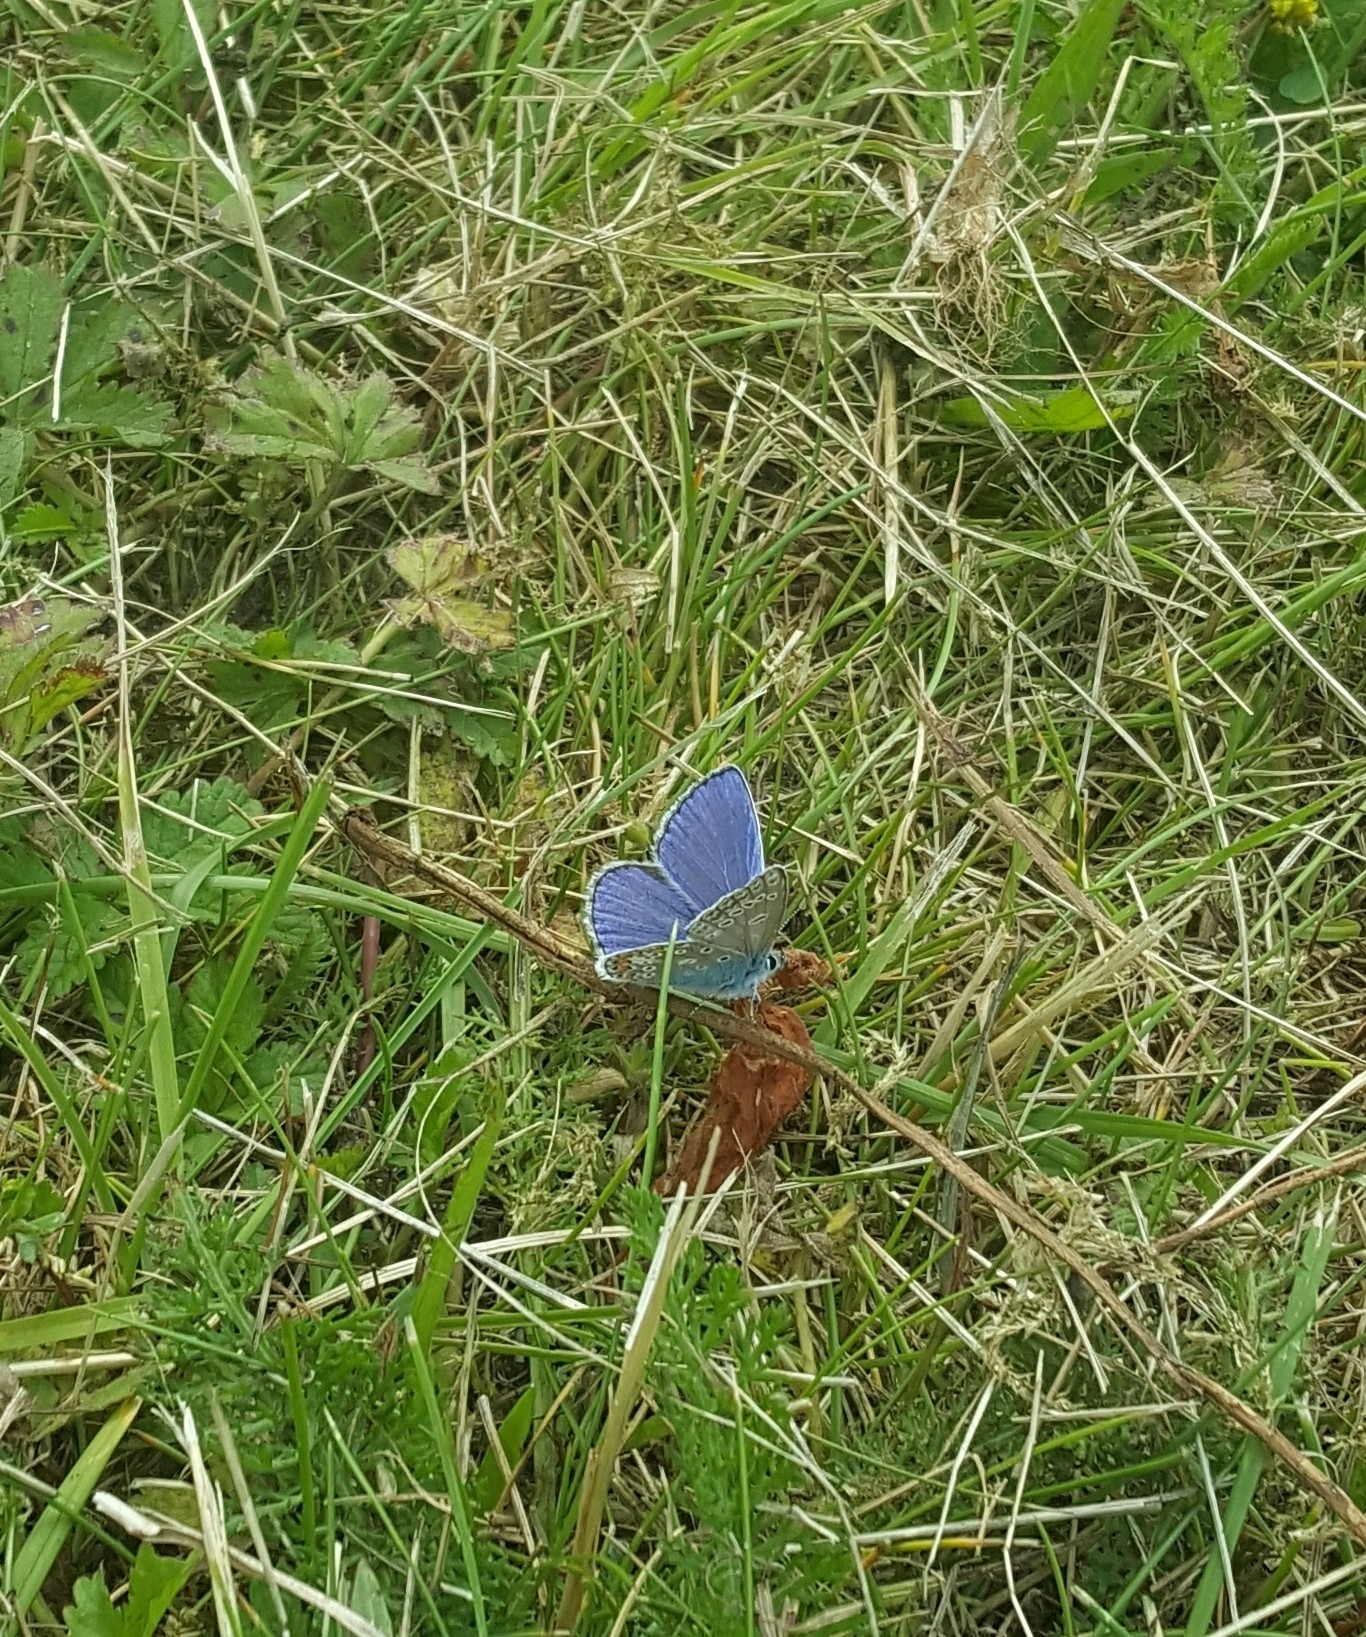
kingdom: Animalia
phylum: Arthropoda
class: Insecta
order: Lepidoptera
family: Lycaenidae
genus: Polyommatus
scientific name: Polyommatus icarus
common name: Common blue
